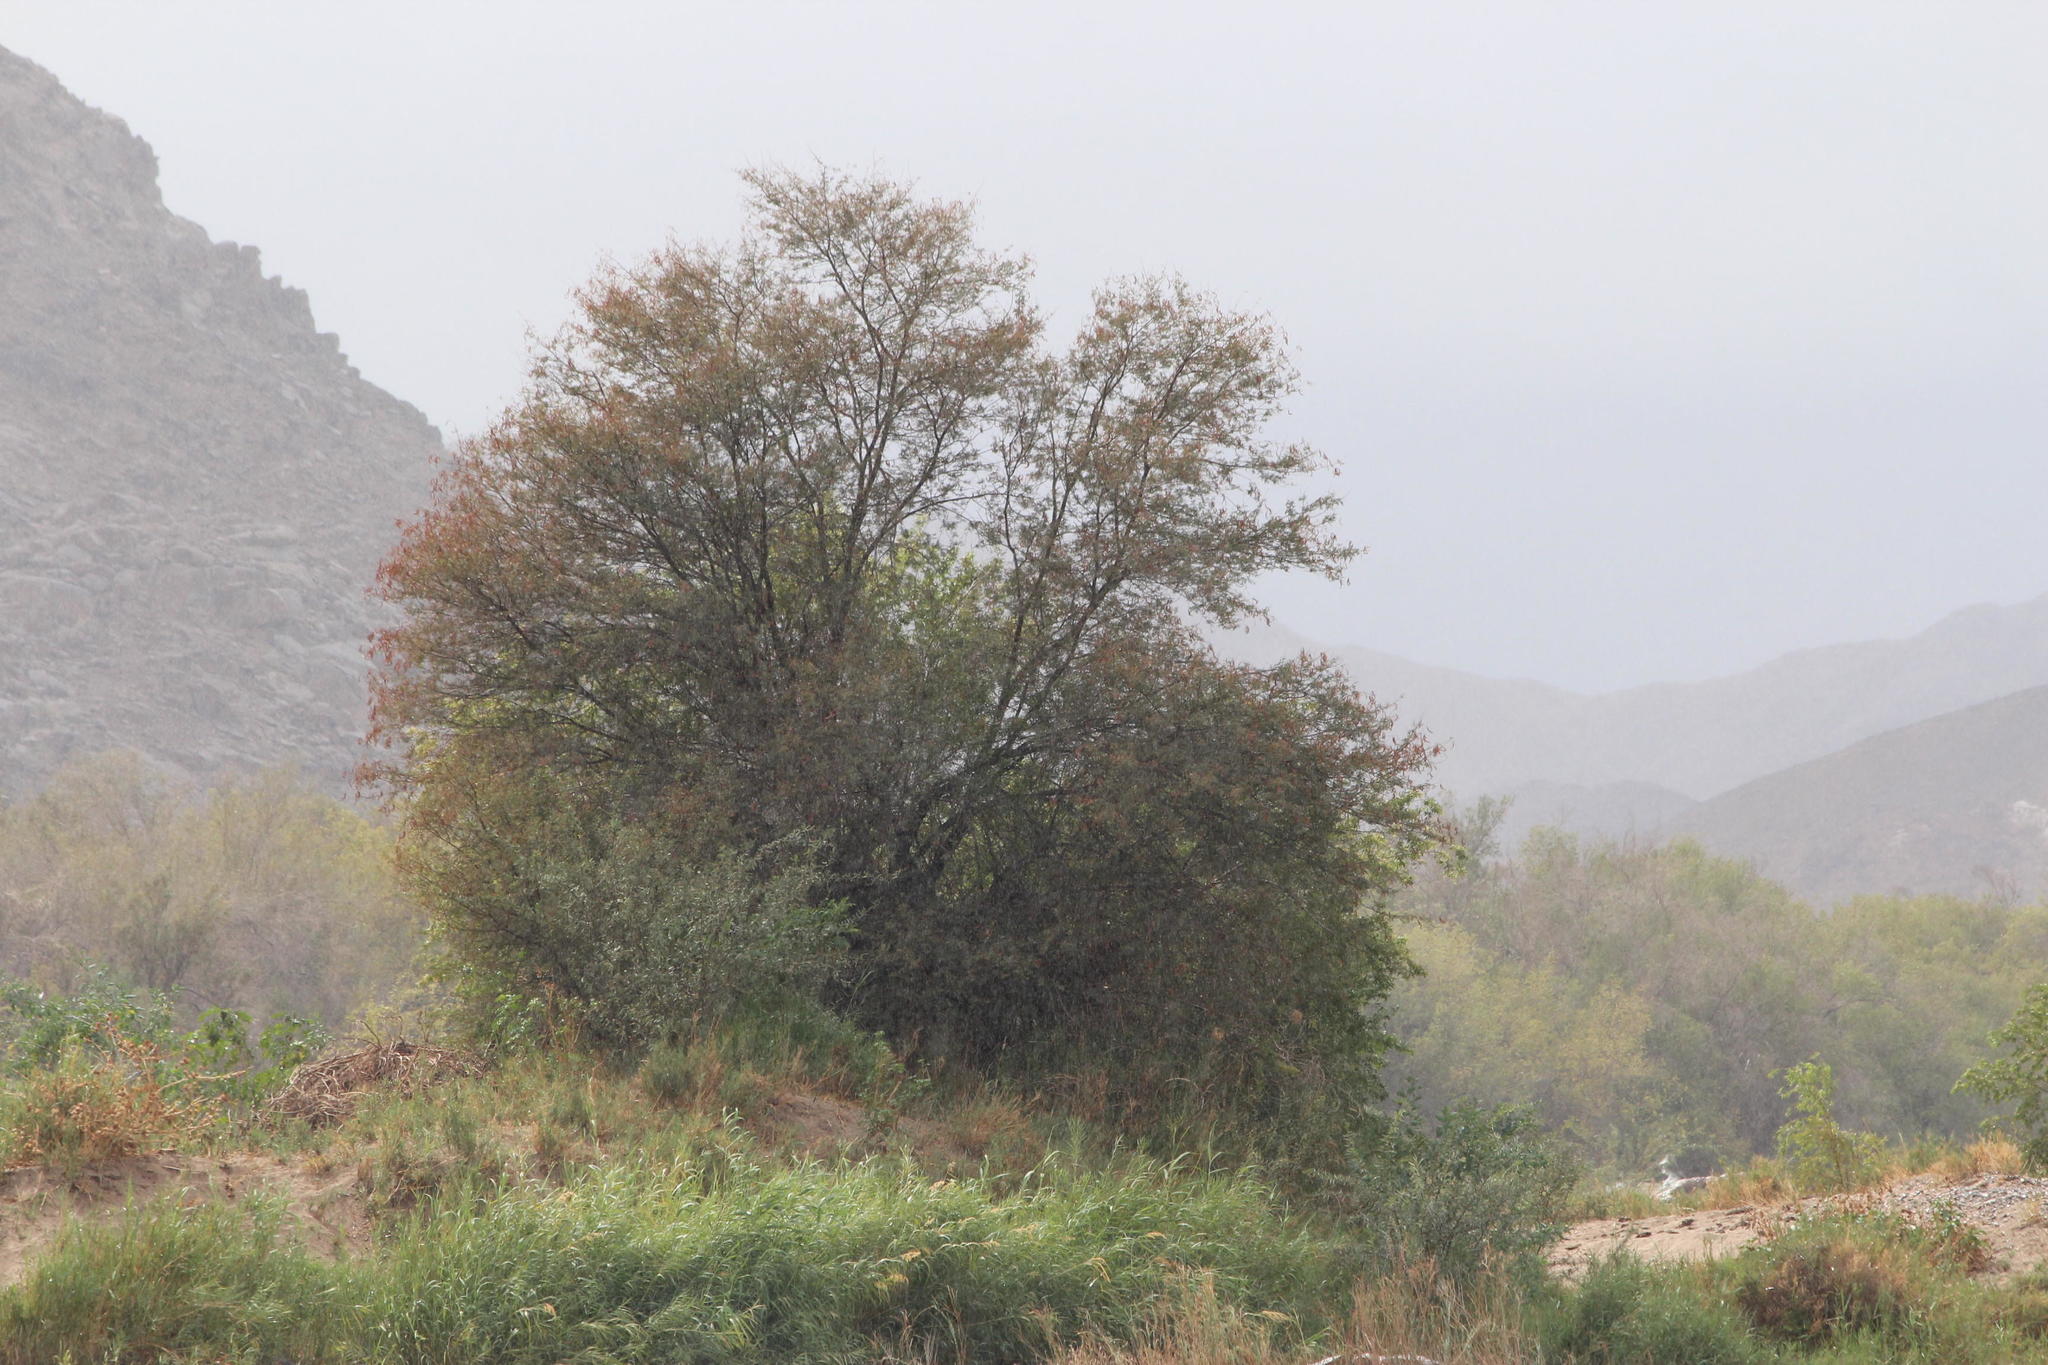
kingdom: Plantae
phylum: Tracheophyta
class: Magnoliopsida
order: Fabales
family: Fabaceae
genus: Vachellia
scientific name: Vachellia karroo
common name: Sweet thorn
